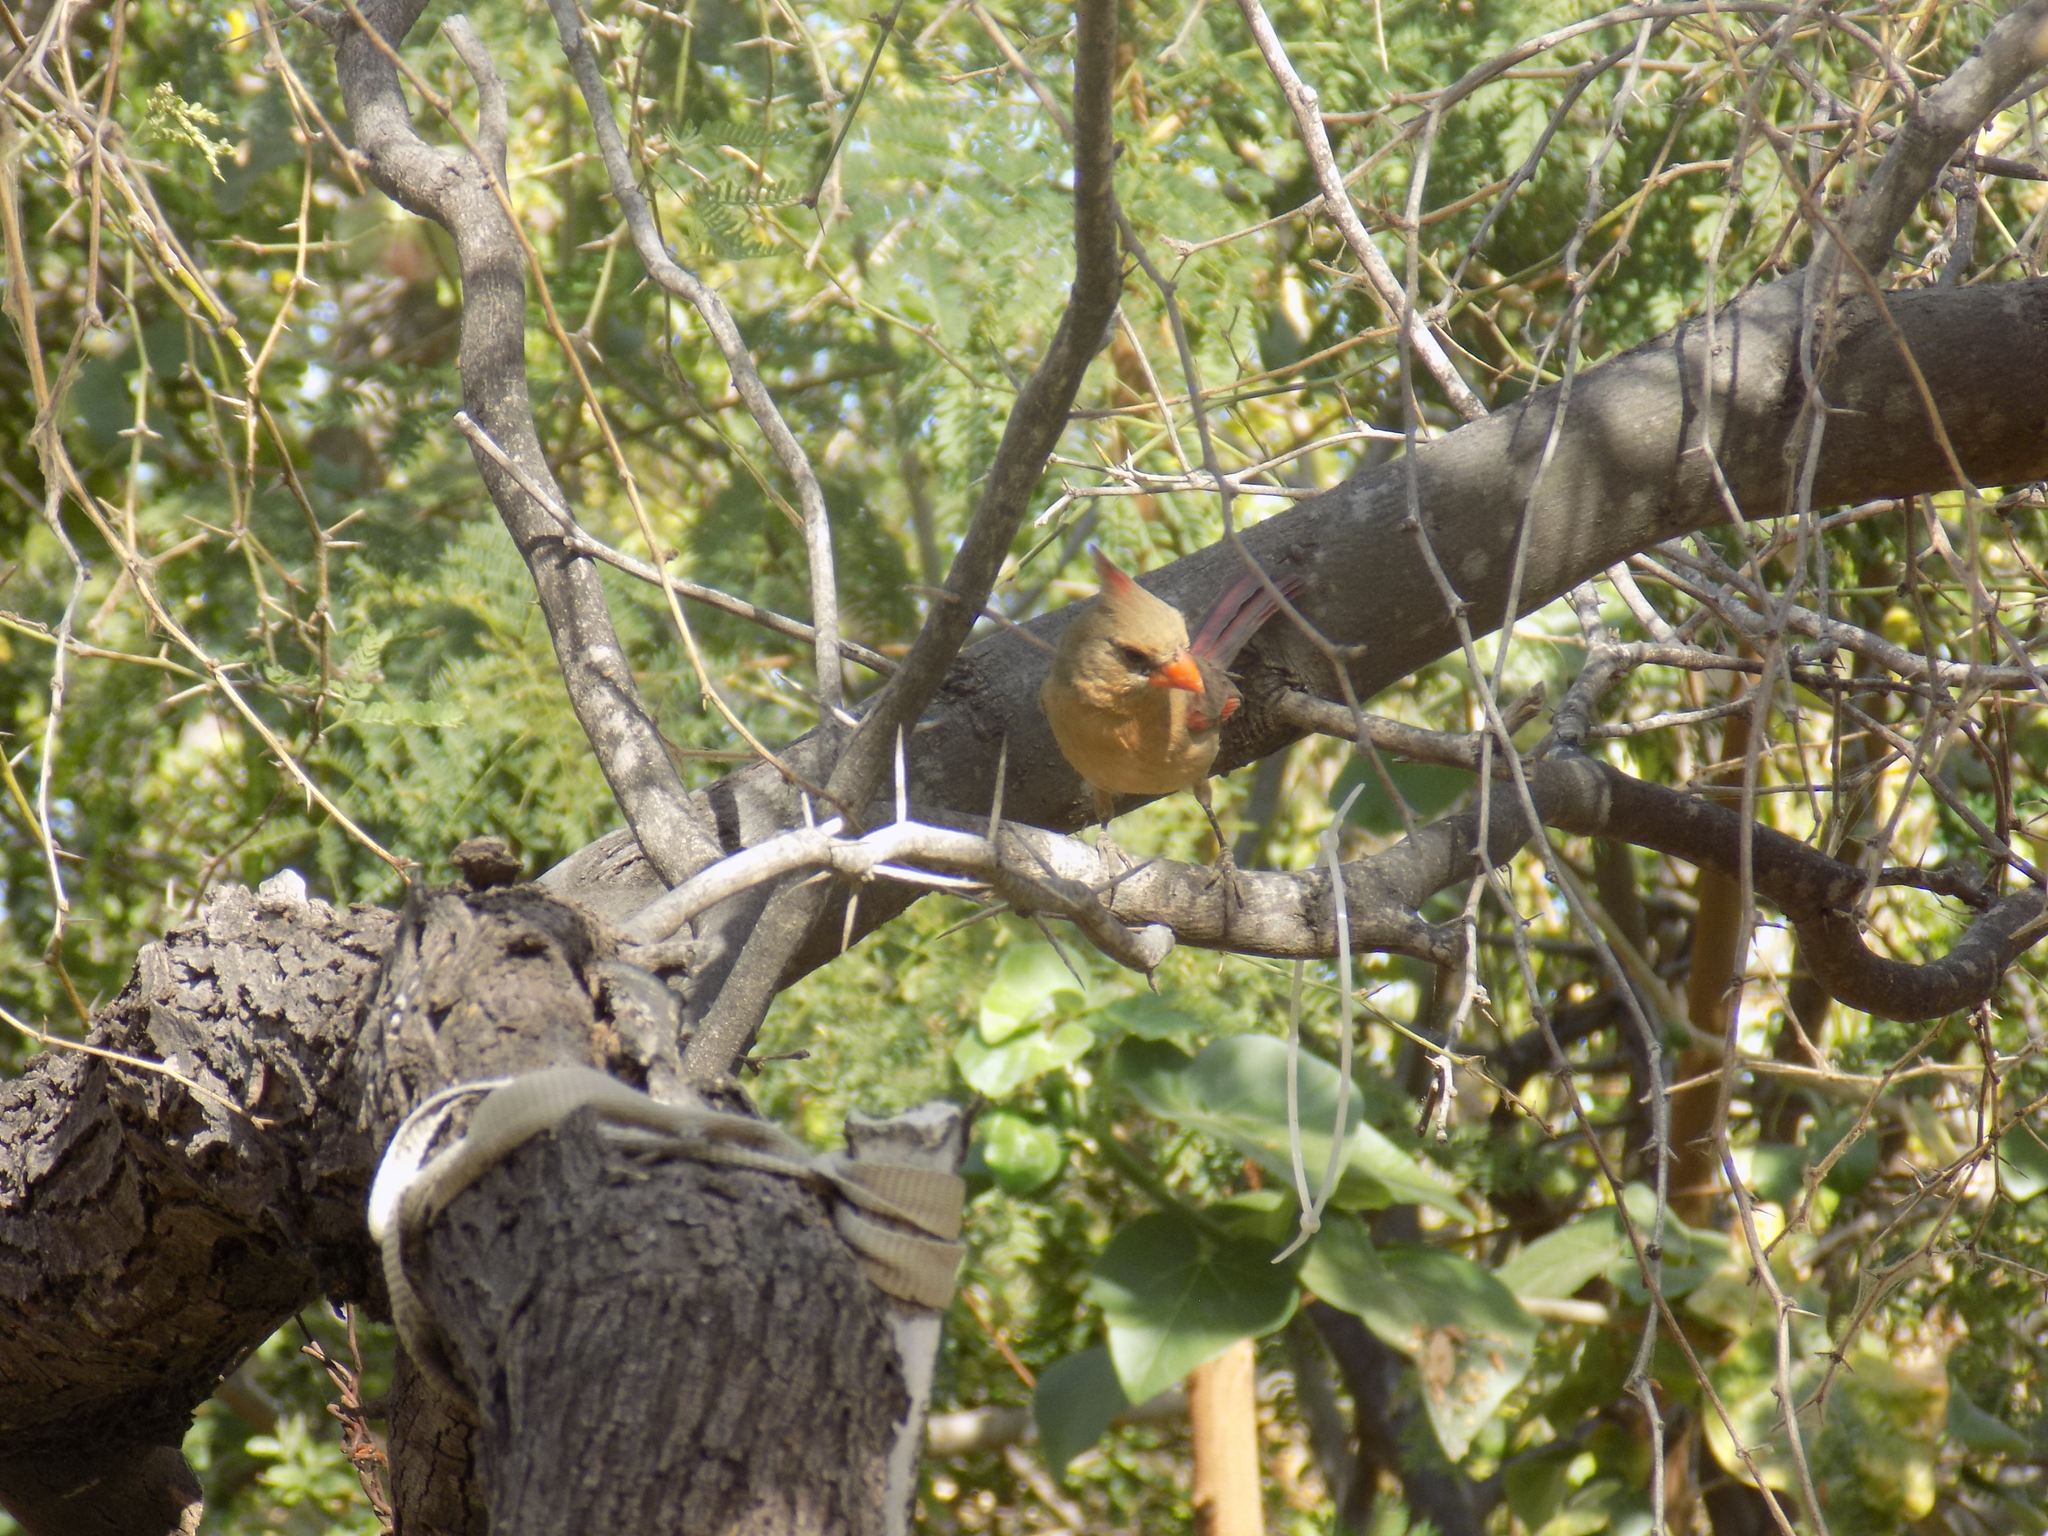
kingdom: Animalia
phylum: Chordata
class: Aves
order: Passeriformes
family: Cardinalidae
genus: Cardinalis
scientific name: Cardinalis cardinalis
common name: Northern cardinal
